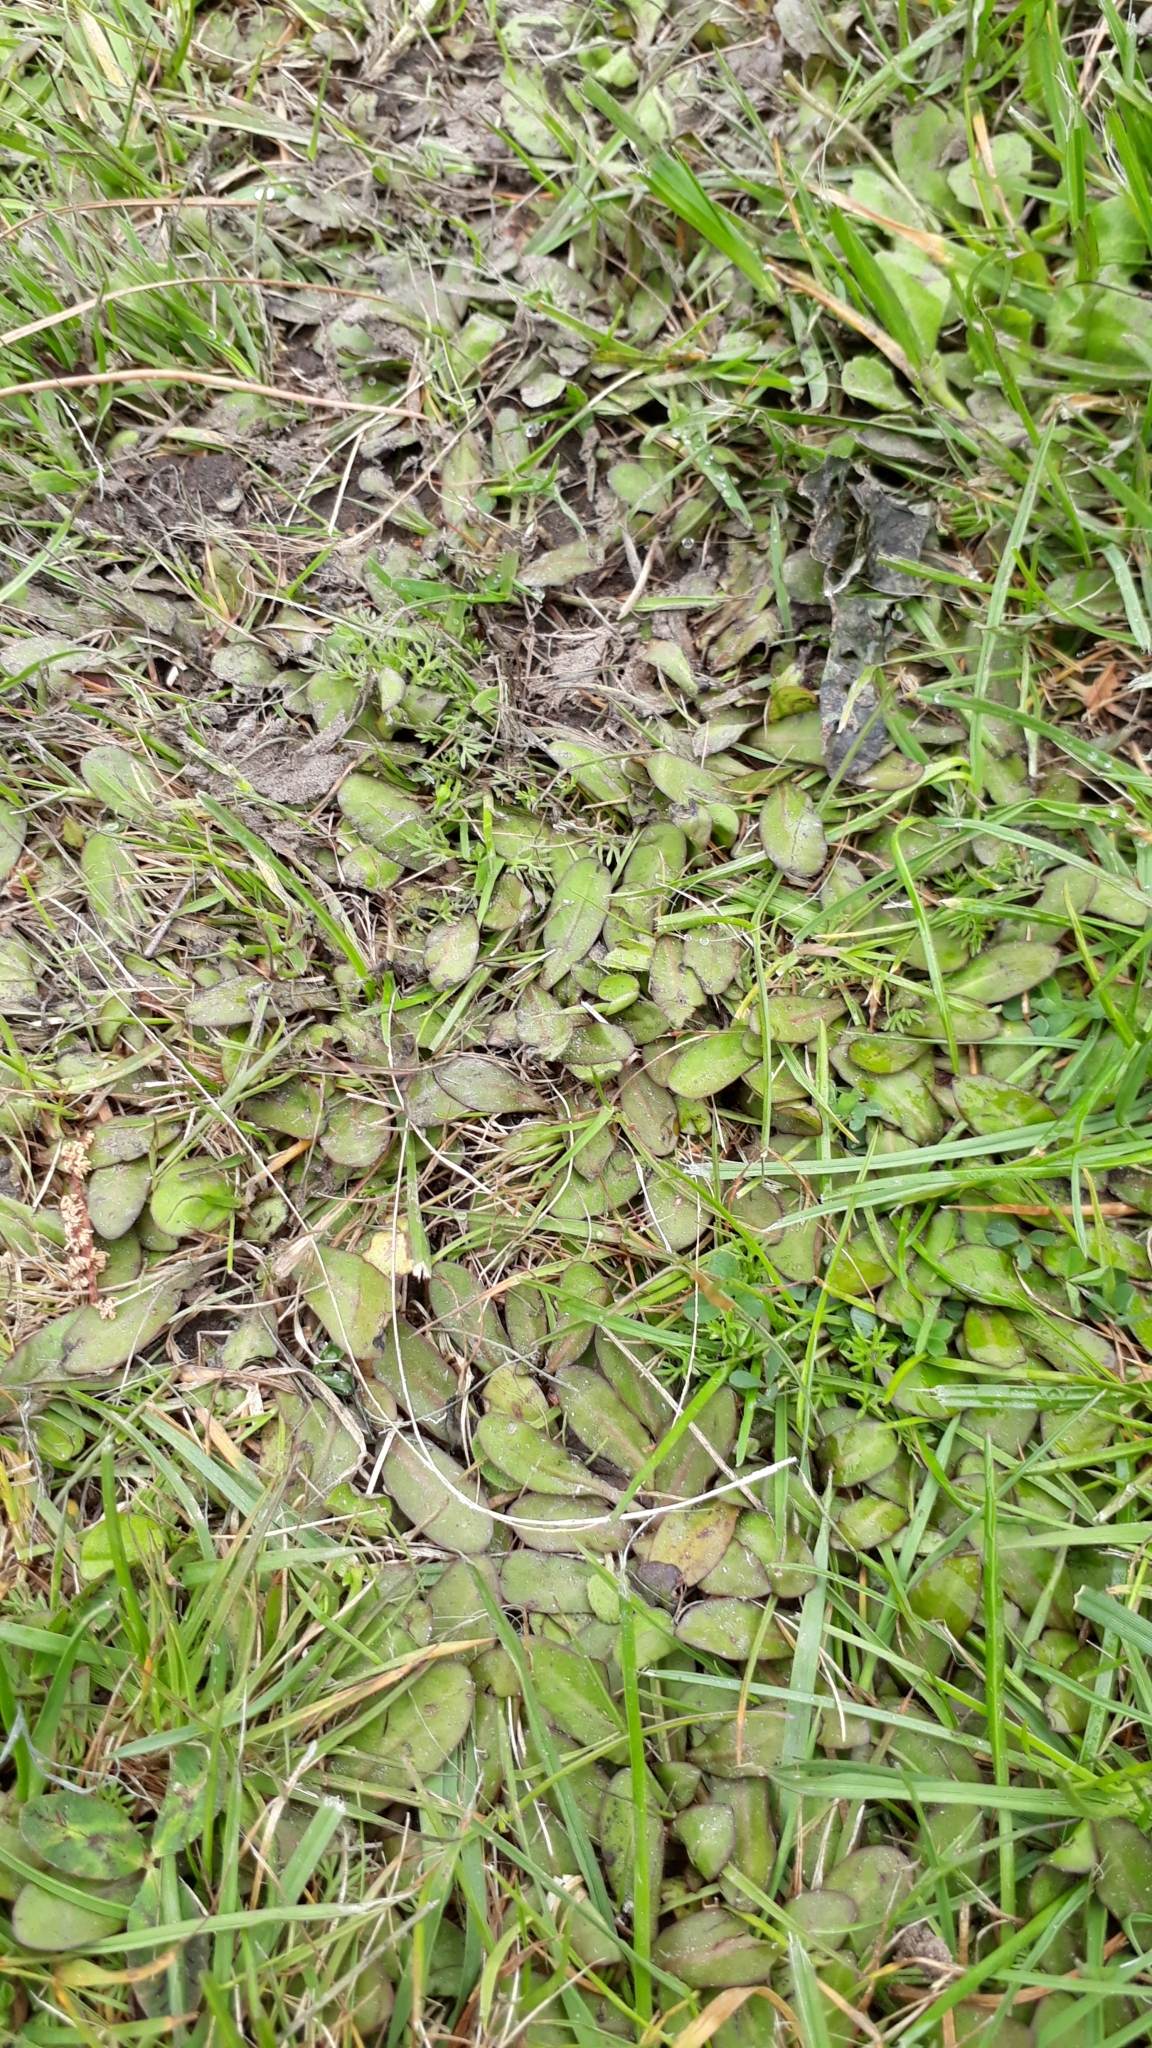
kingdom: Plantae
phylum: Tracheophyta
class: Magnoliopsida
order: Lamiales
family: Mazaceae
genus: Mazus
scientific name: Mazus novaezeelandiae
